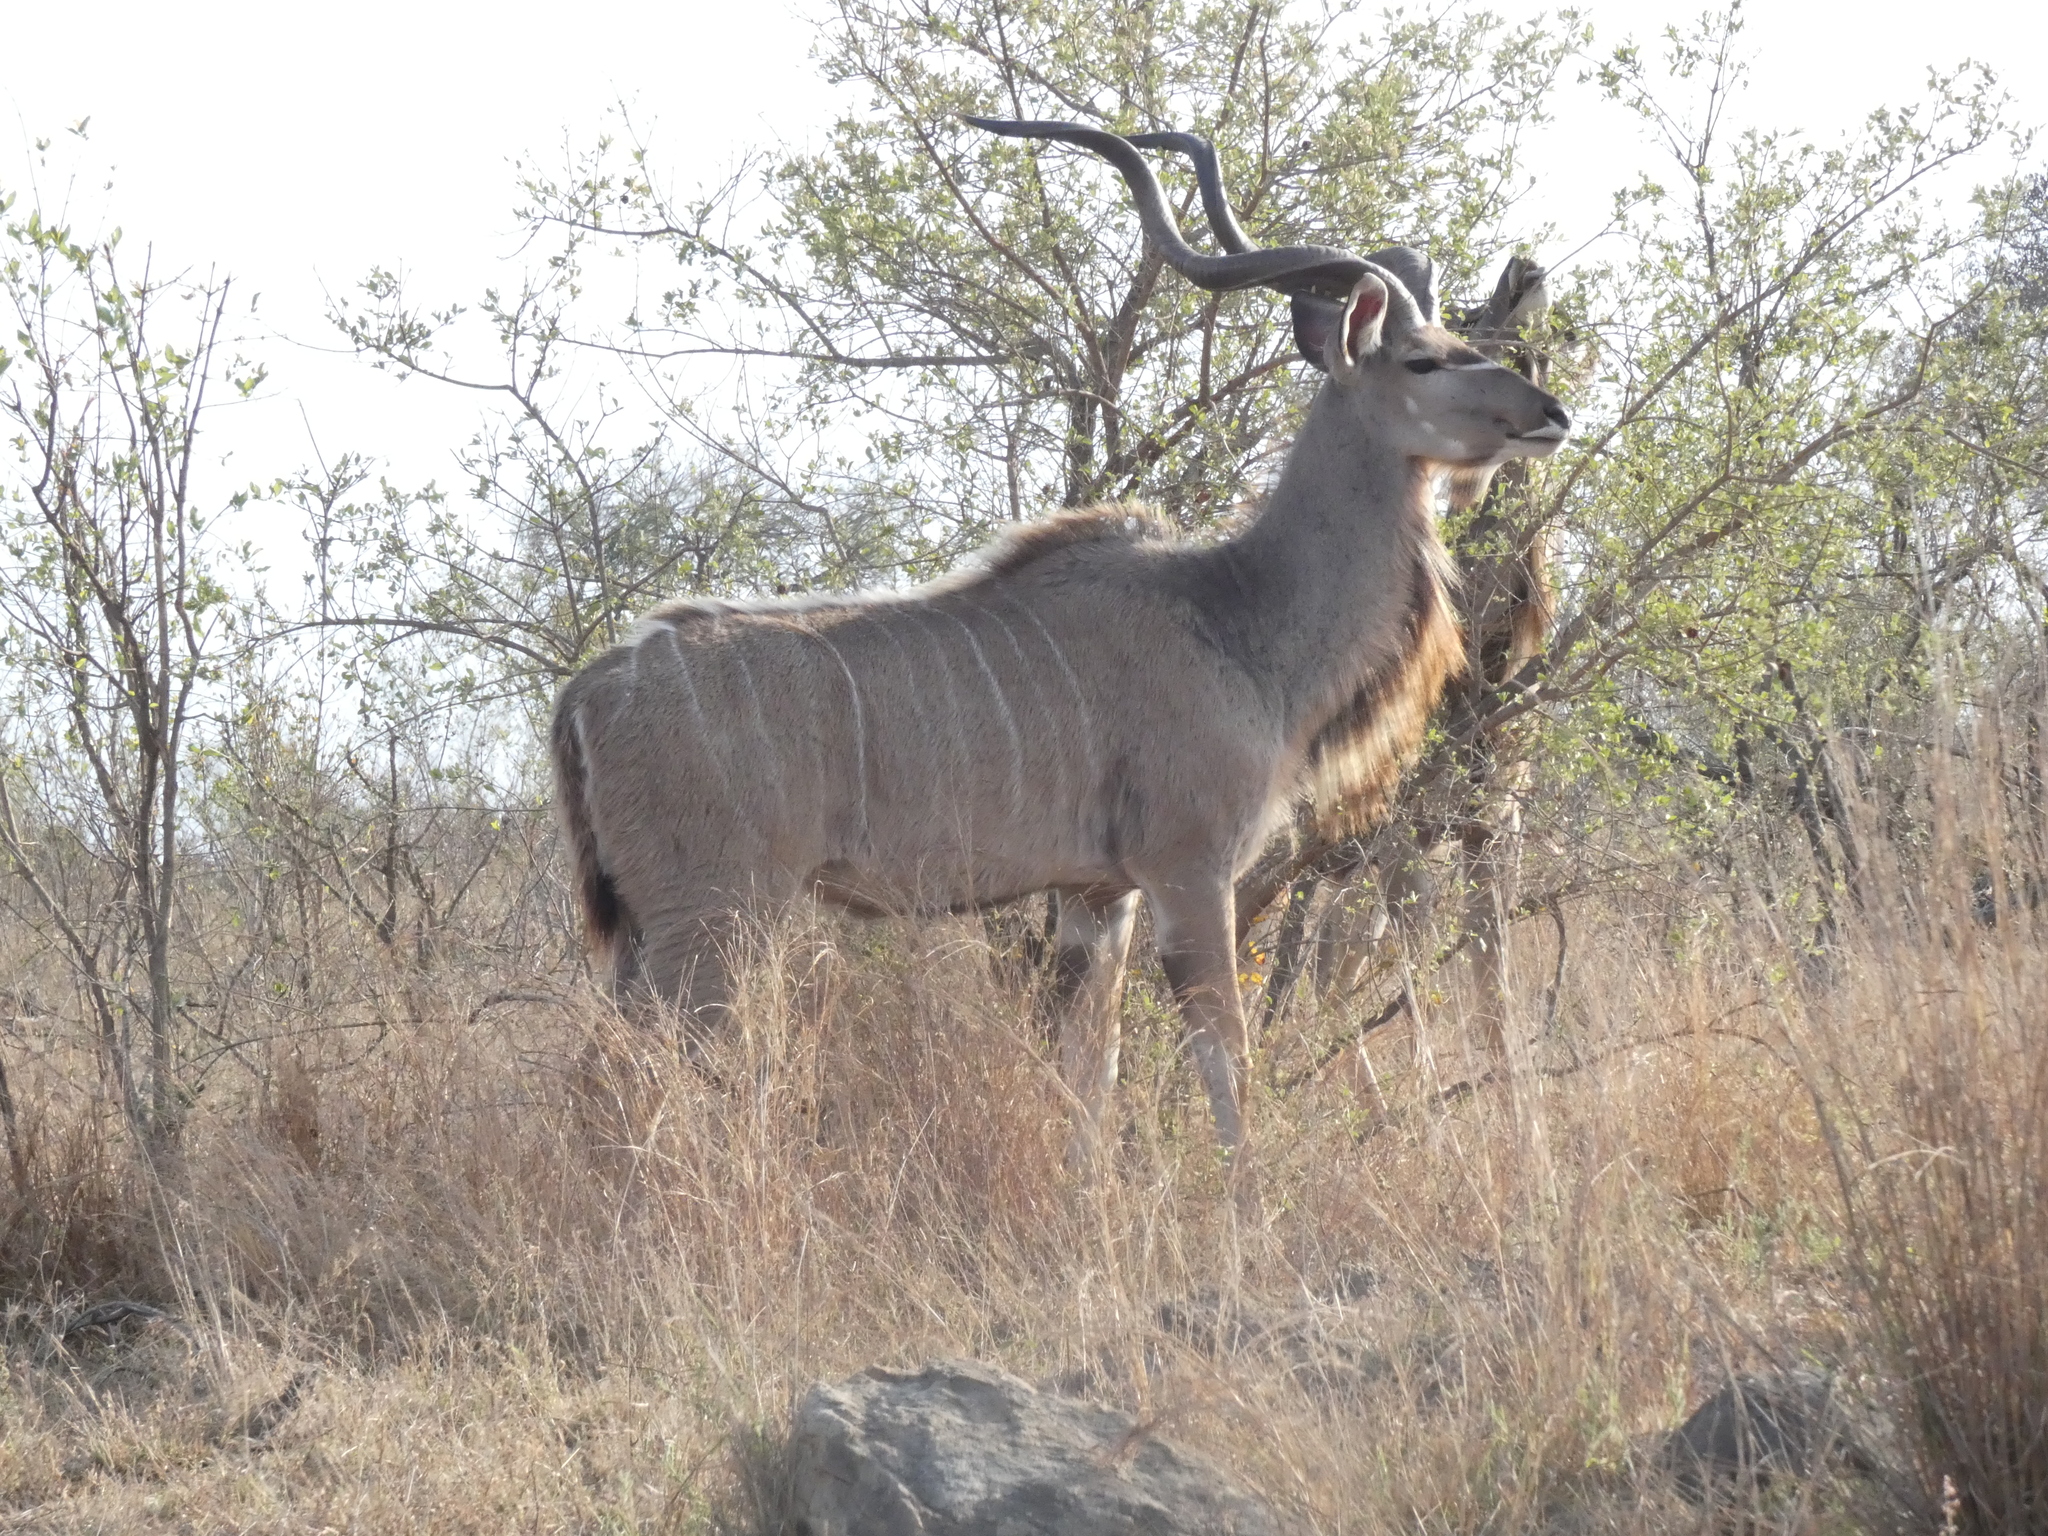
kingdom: Animalia
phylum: Chordata
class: Mammalia
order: Artiodactyla
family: Bovidae
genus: Tragelaphus
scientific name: Tragelaphus strepsiceros
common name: Greater kudu
